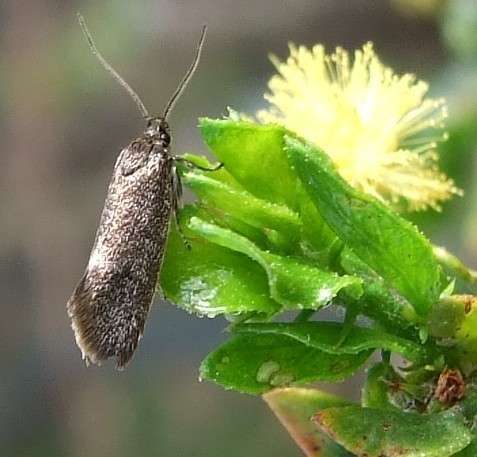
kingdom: Animalia
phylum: Arthropoda
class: Insecta
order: Lepidoptera
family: Oecophoridae
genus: Leistomorpha
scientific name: Leistomorpha brontoscopa
